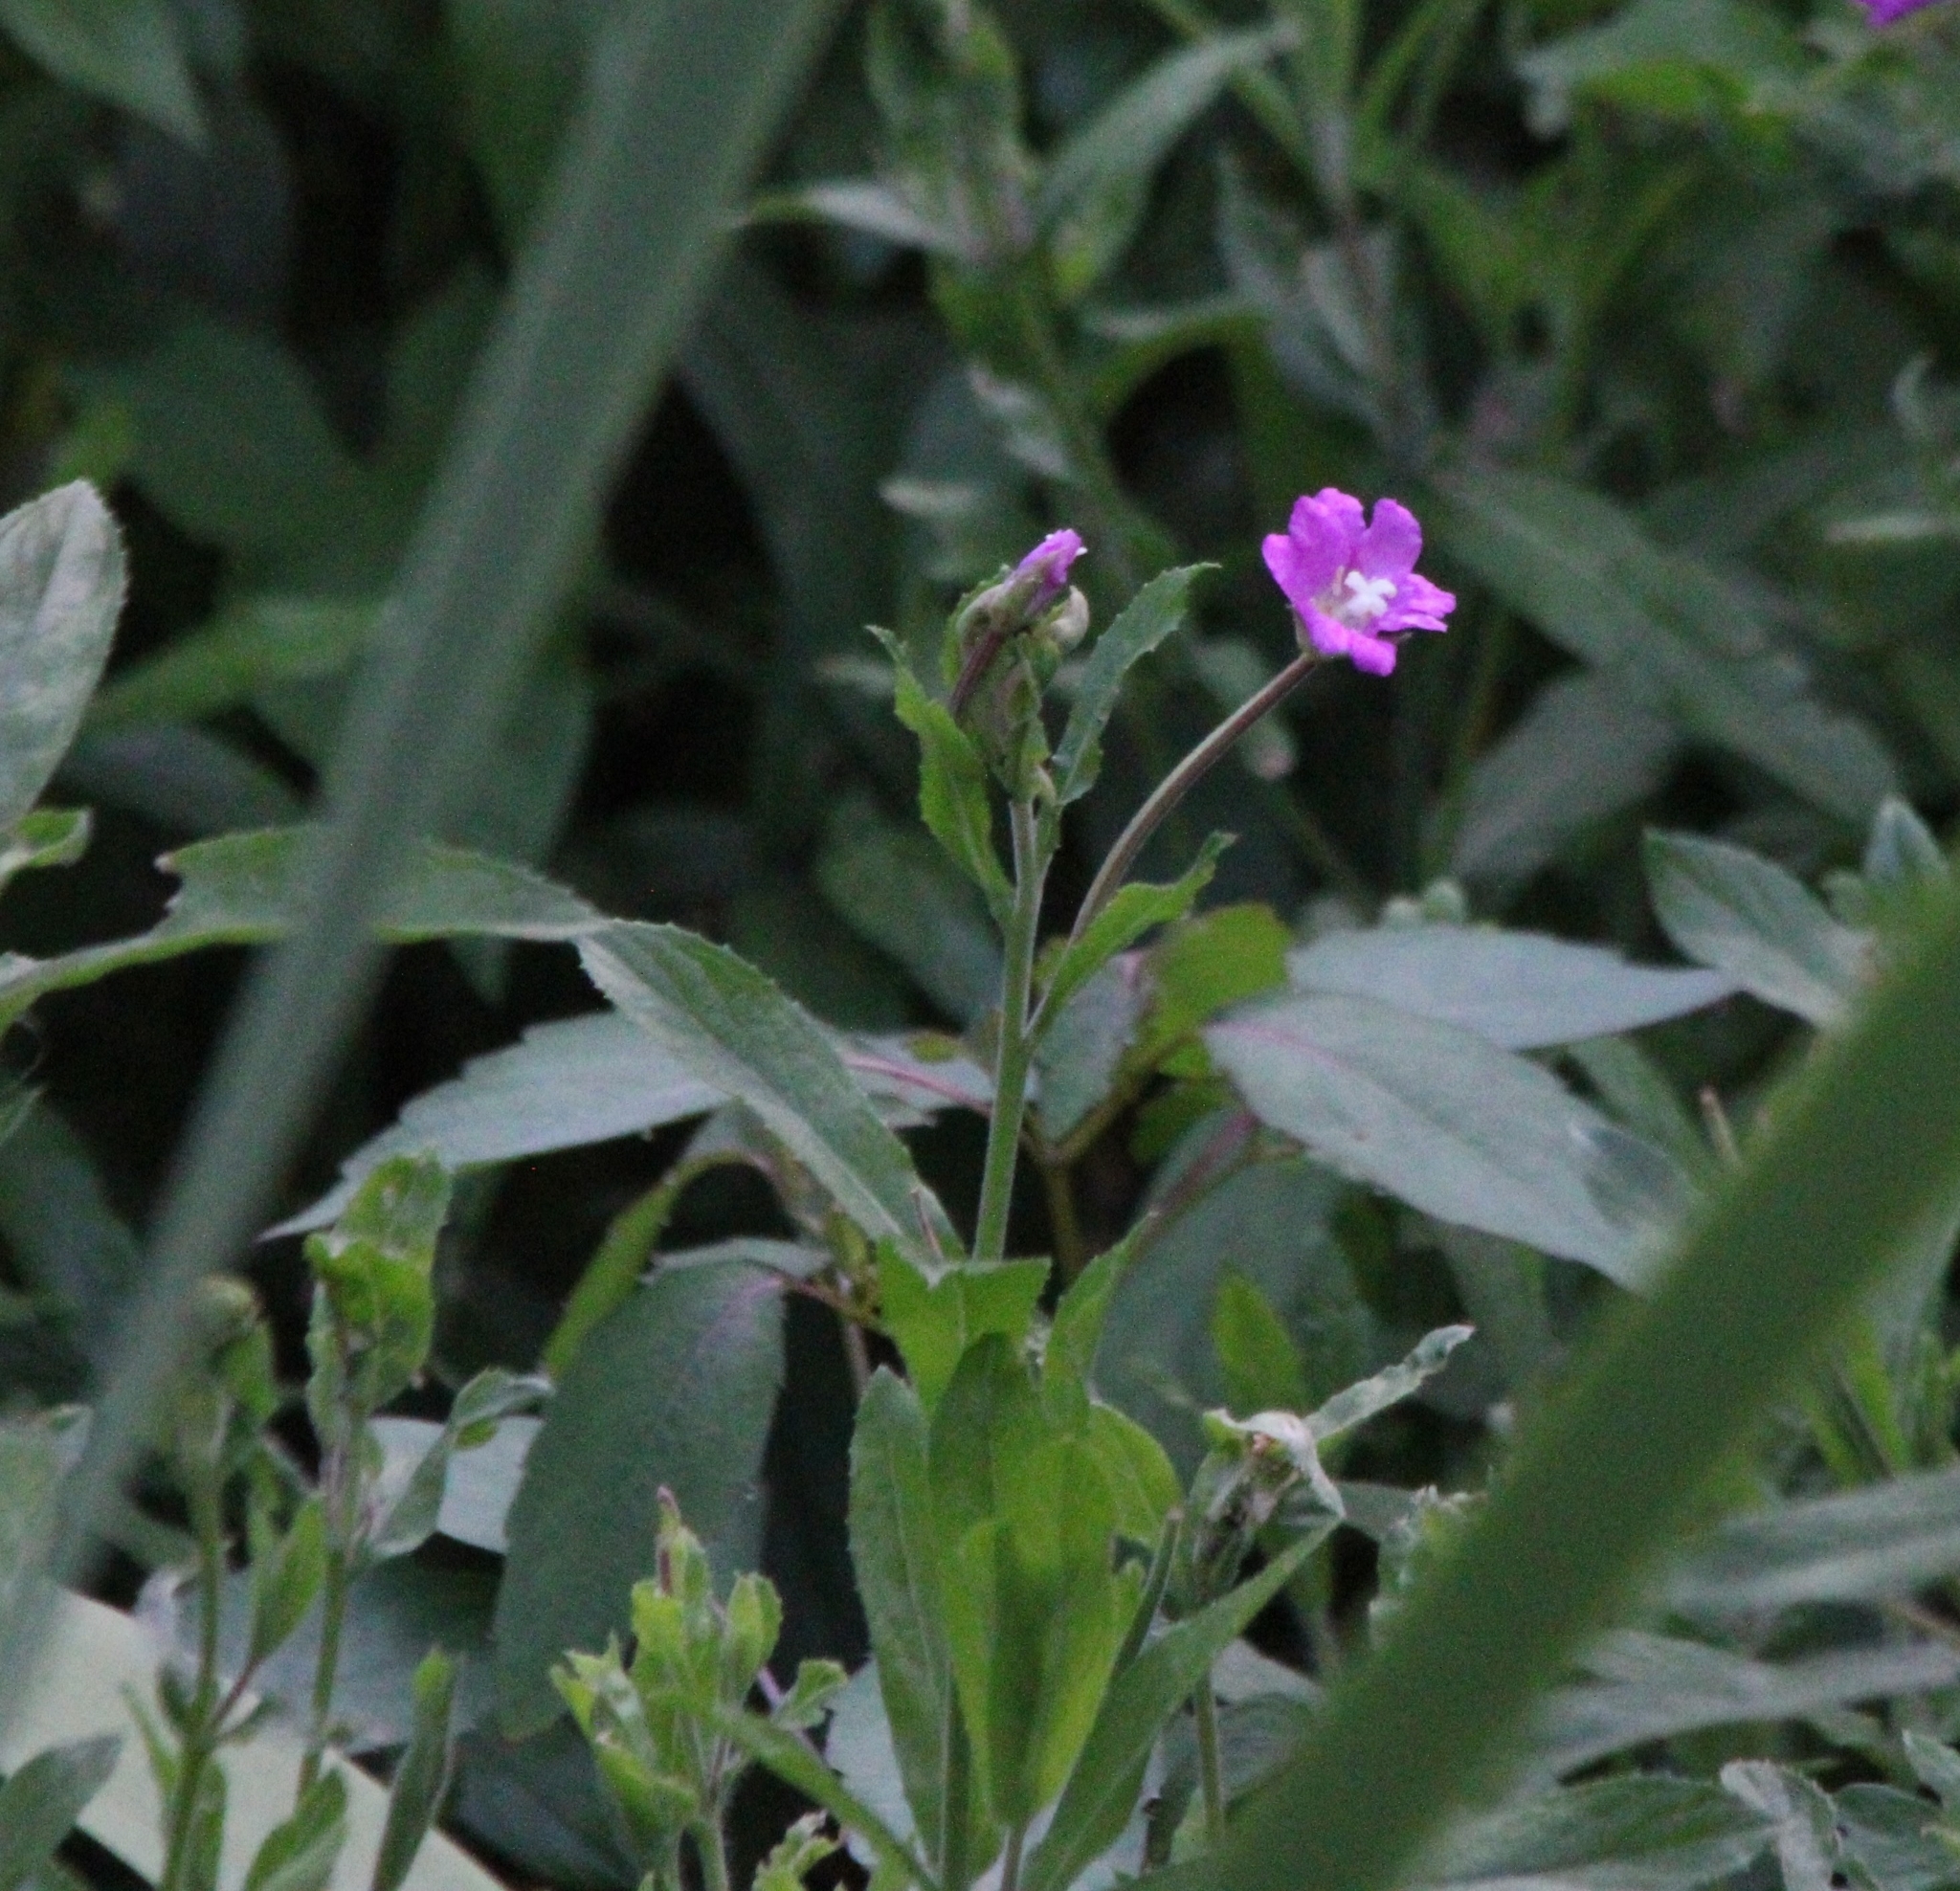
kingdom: Plantae
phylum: Tracheophyta
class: Magnoliopsida
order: Myrtales
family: Onagraceae
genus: Epilobium
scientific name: Epilobium hirsutum
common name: Great willowherb
